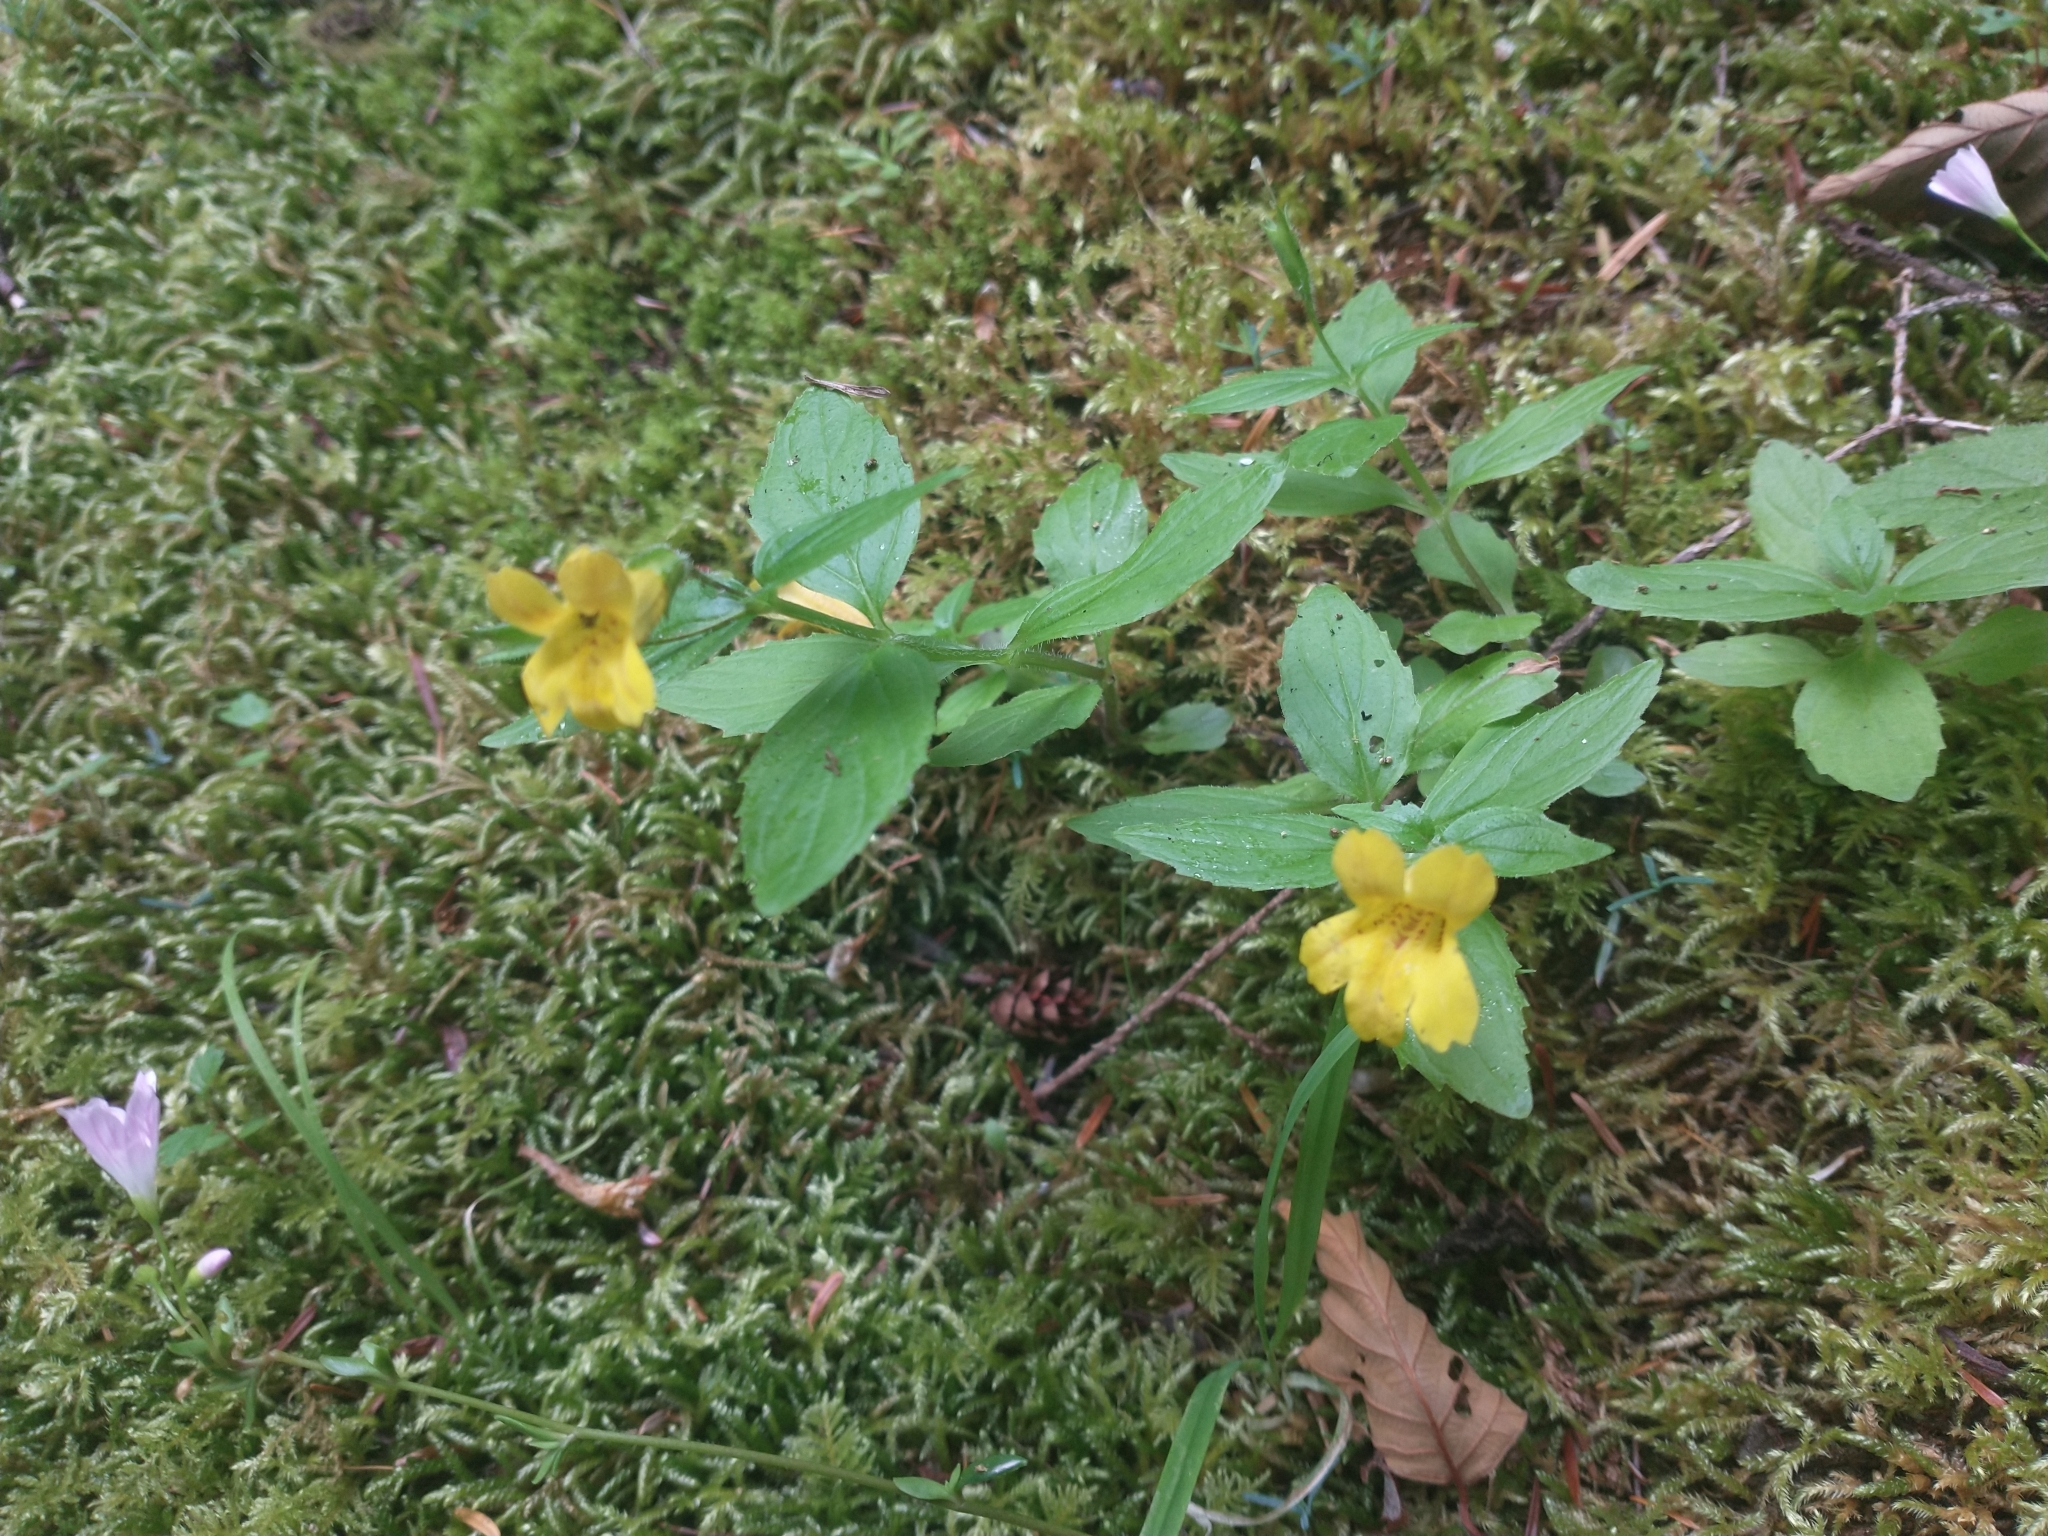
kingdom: Plantae
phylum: Tracheophyta
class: Magnoliopsida
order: Lamiales
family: Phrymaceae
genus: Erythranthe
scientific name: Erythranthe dentata
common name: Coastal monkeyflower
